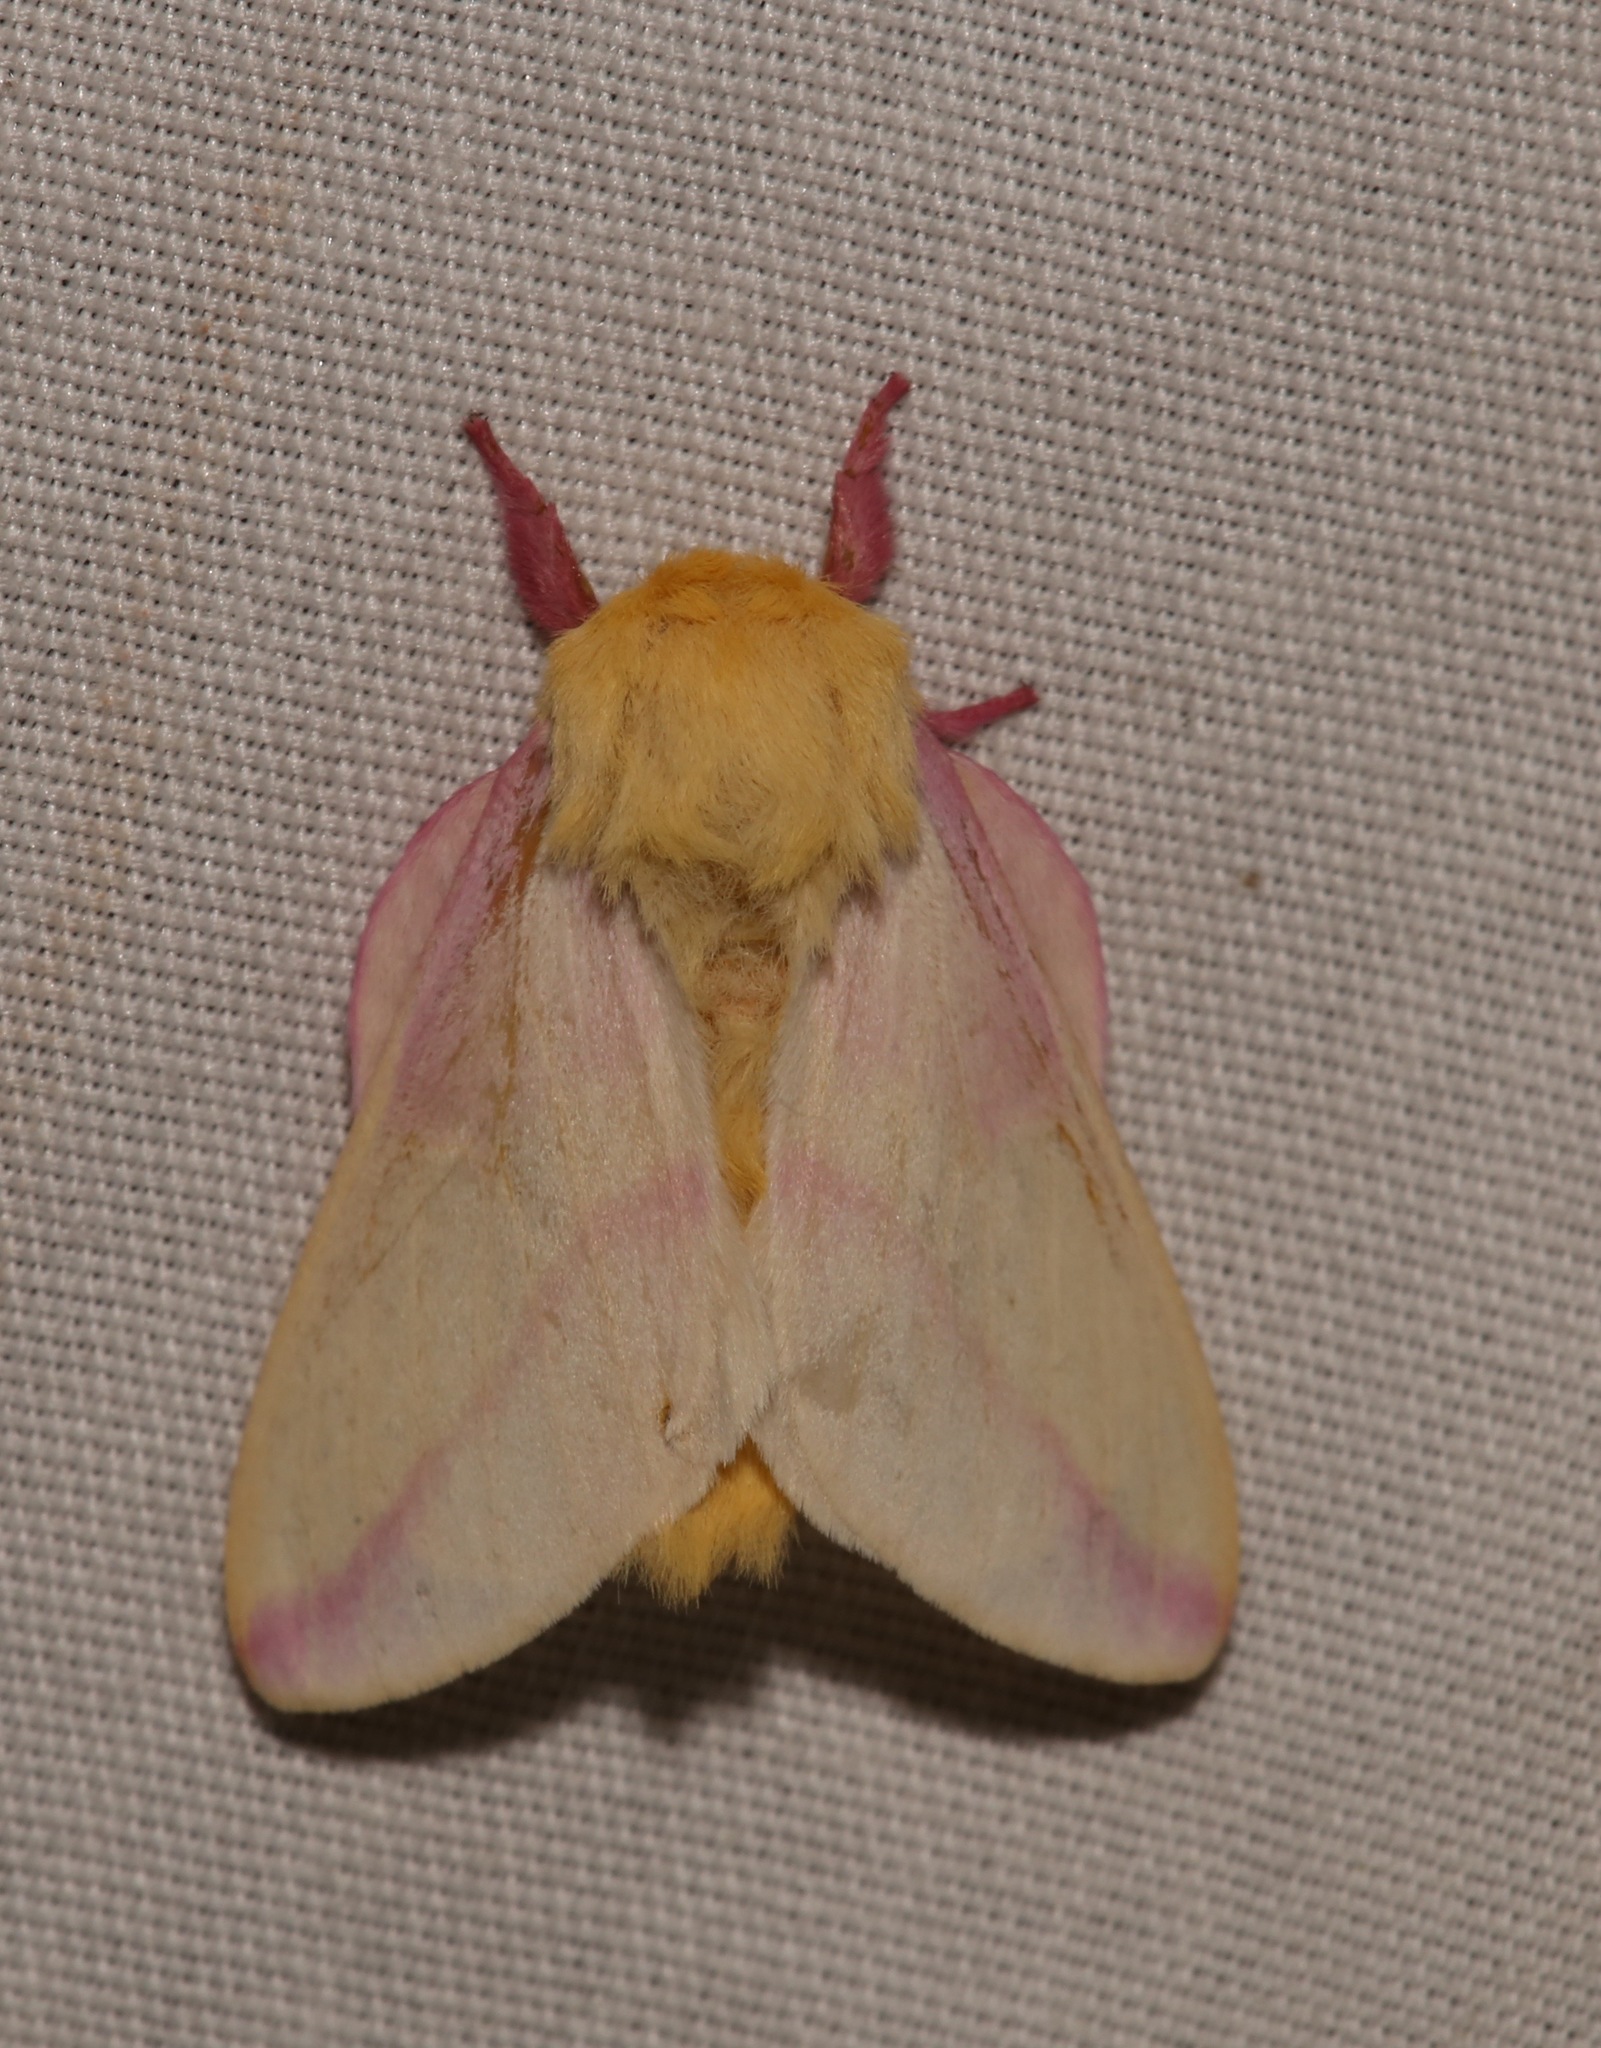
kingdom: Animalia
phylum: Arthropoda
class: Insecta
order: Lepidoptera
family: Saturniidae
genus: Dryocampa
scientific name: Dryocampa rubicunda
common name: Rosy maple moth
